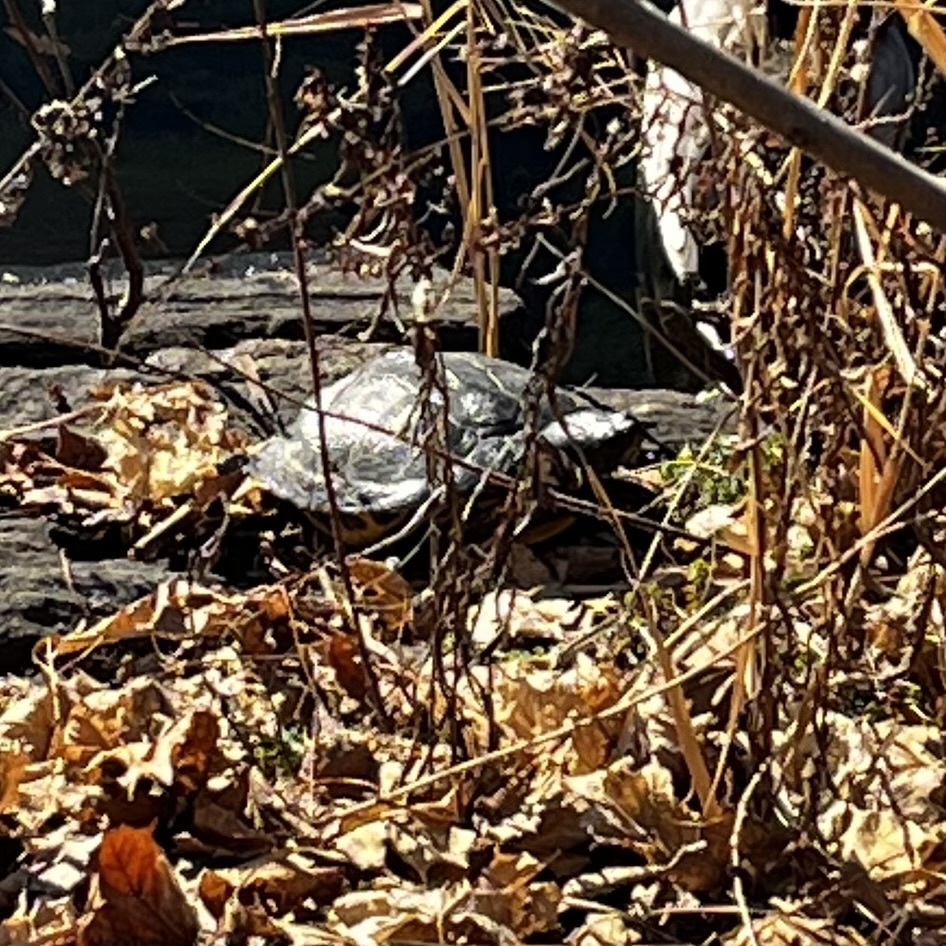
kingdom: Animalia
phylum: Chordata
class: Testudines
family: Emydidae
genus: Trachemys
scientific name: Trachemys scripta
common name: Slider
